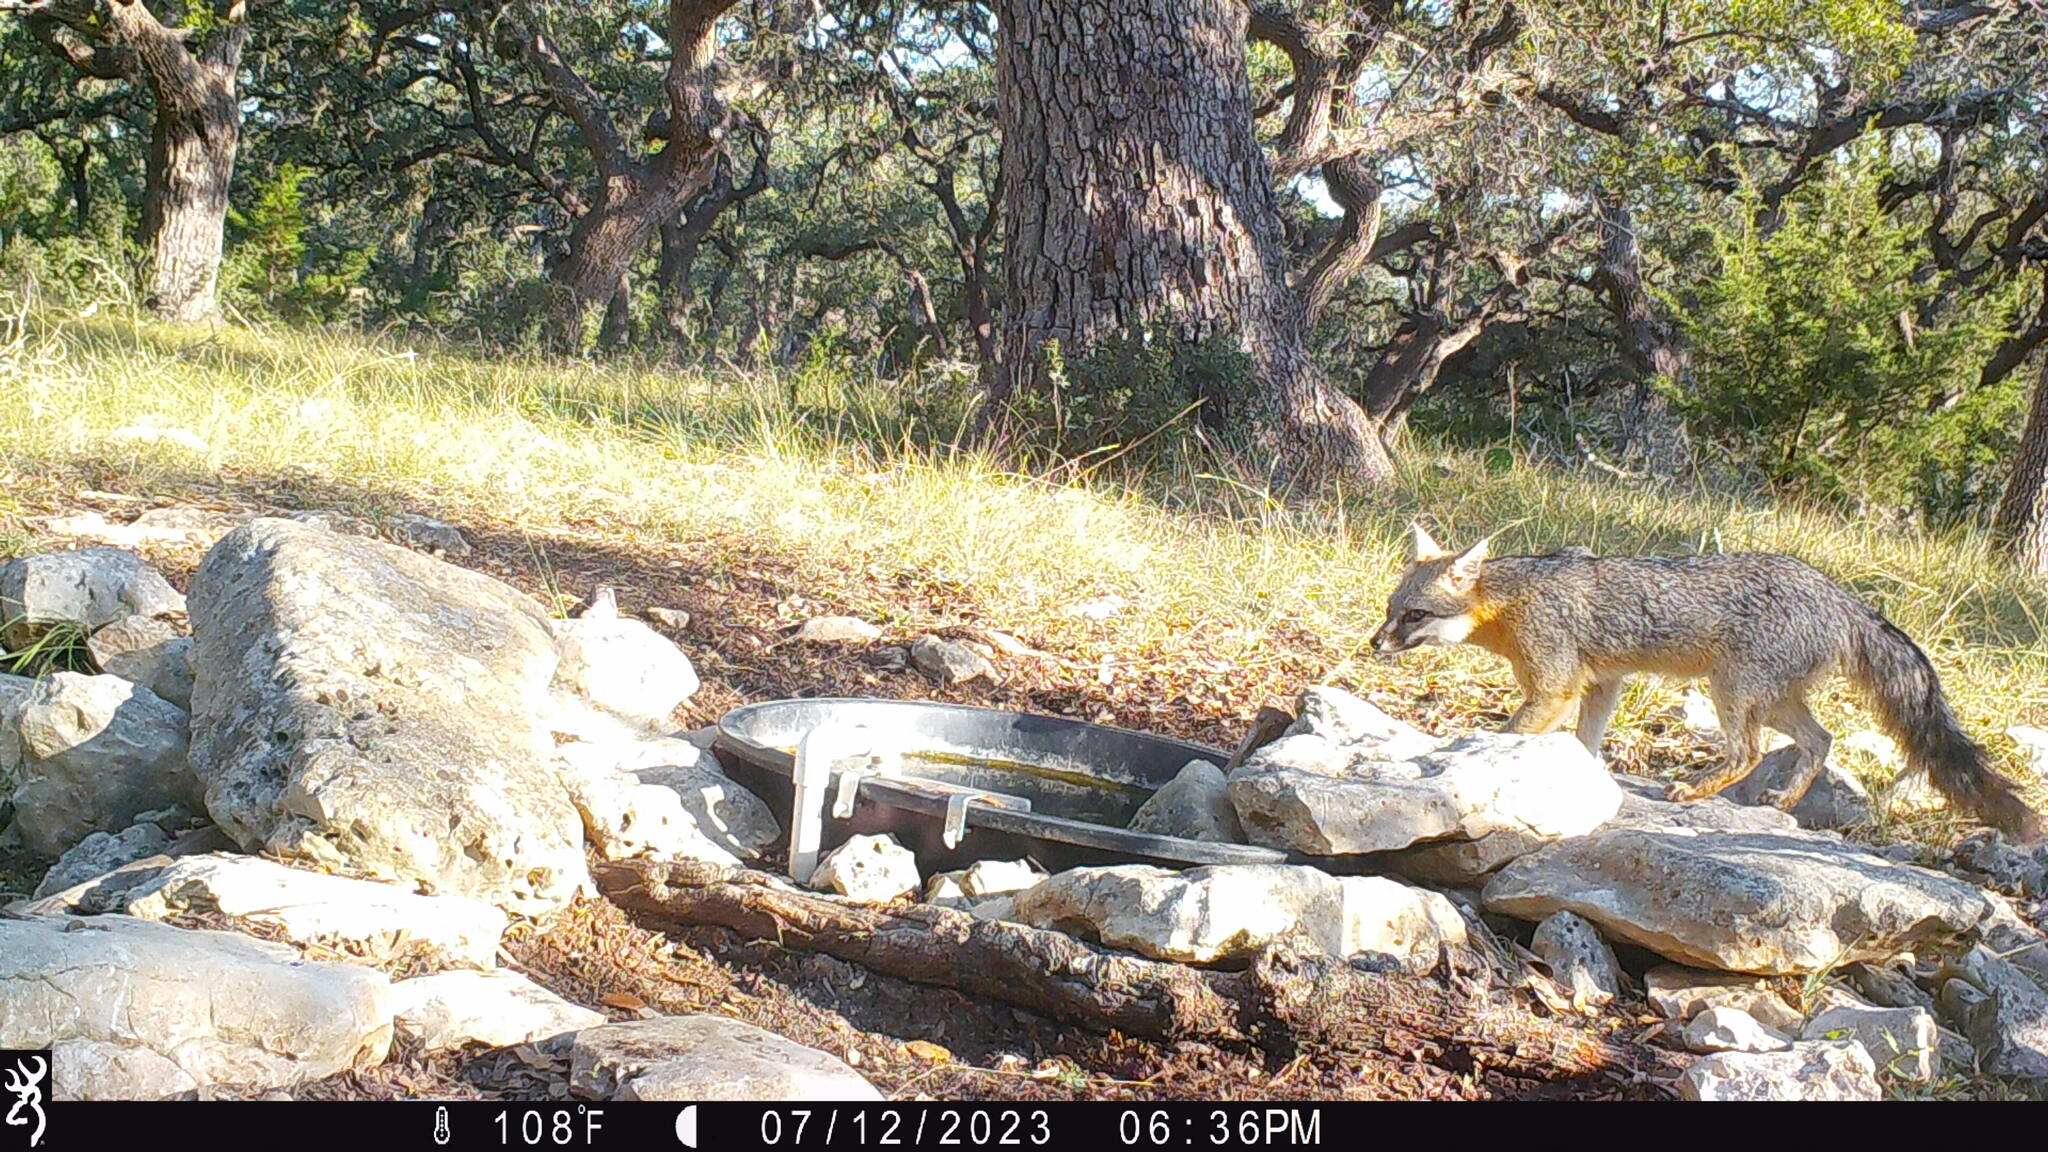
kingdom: Animalia
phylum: Chordata
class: Mammalia
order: Carnivora
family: Canidae
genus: Urocyon
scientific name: Urocyon cinereoargenteus
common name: Gray fox
